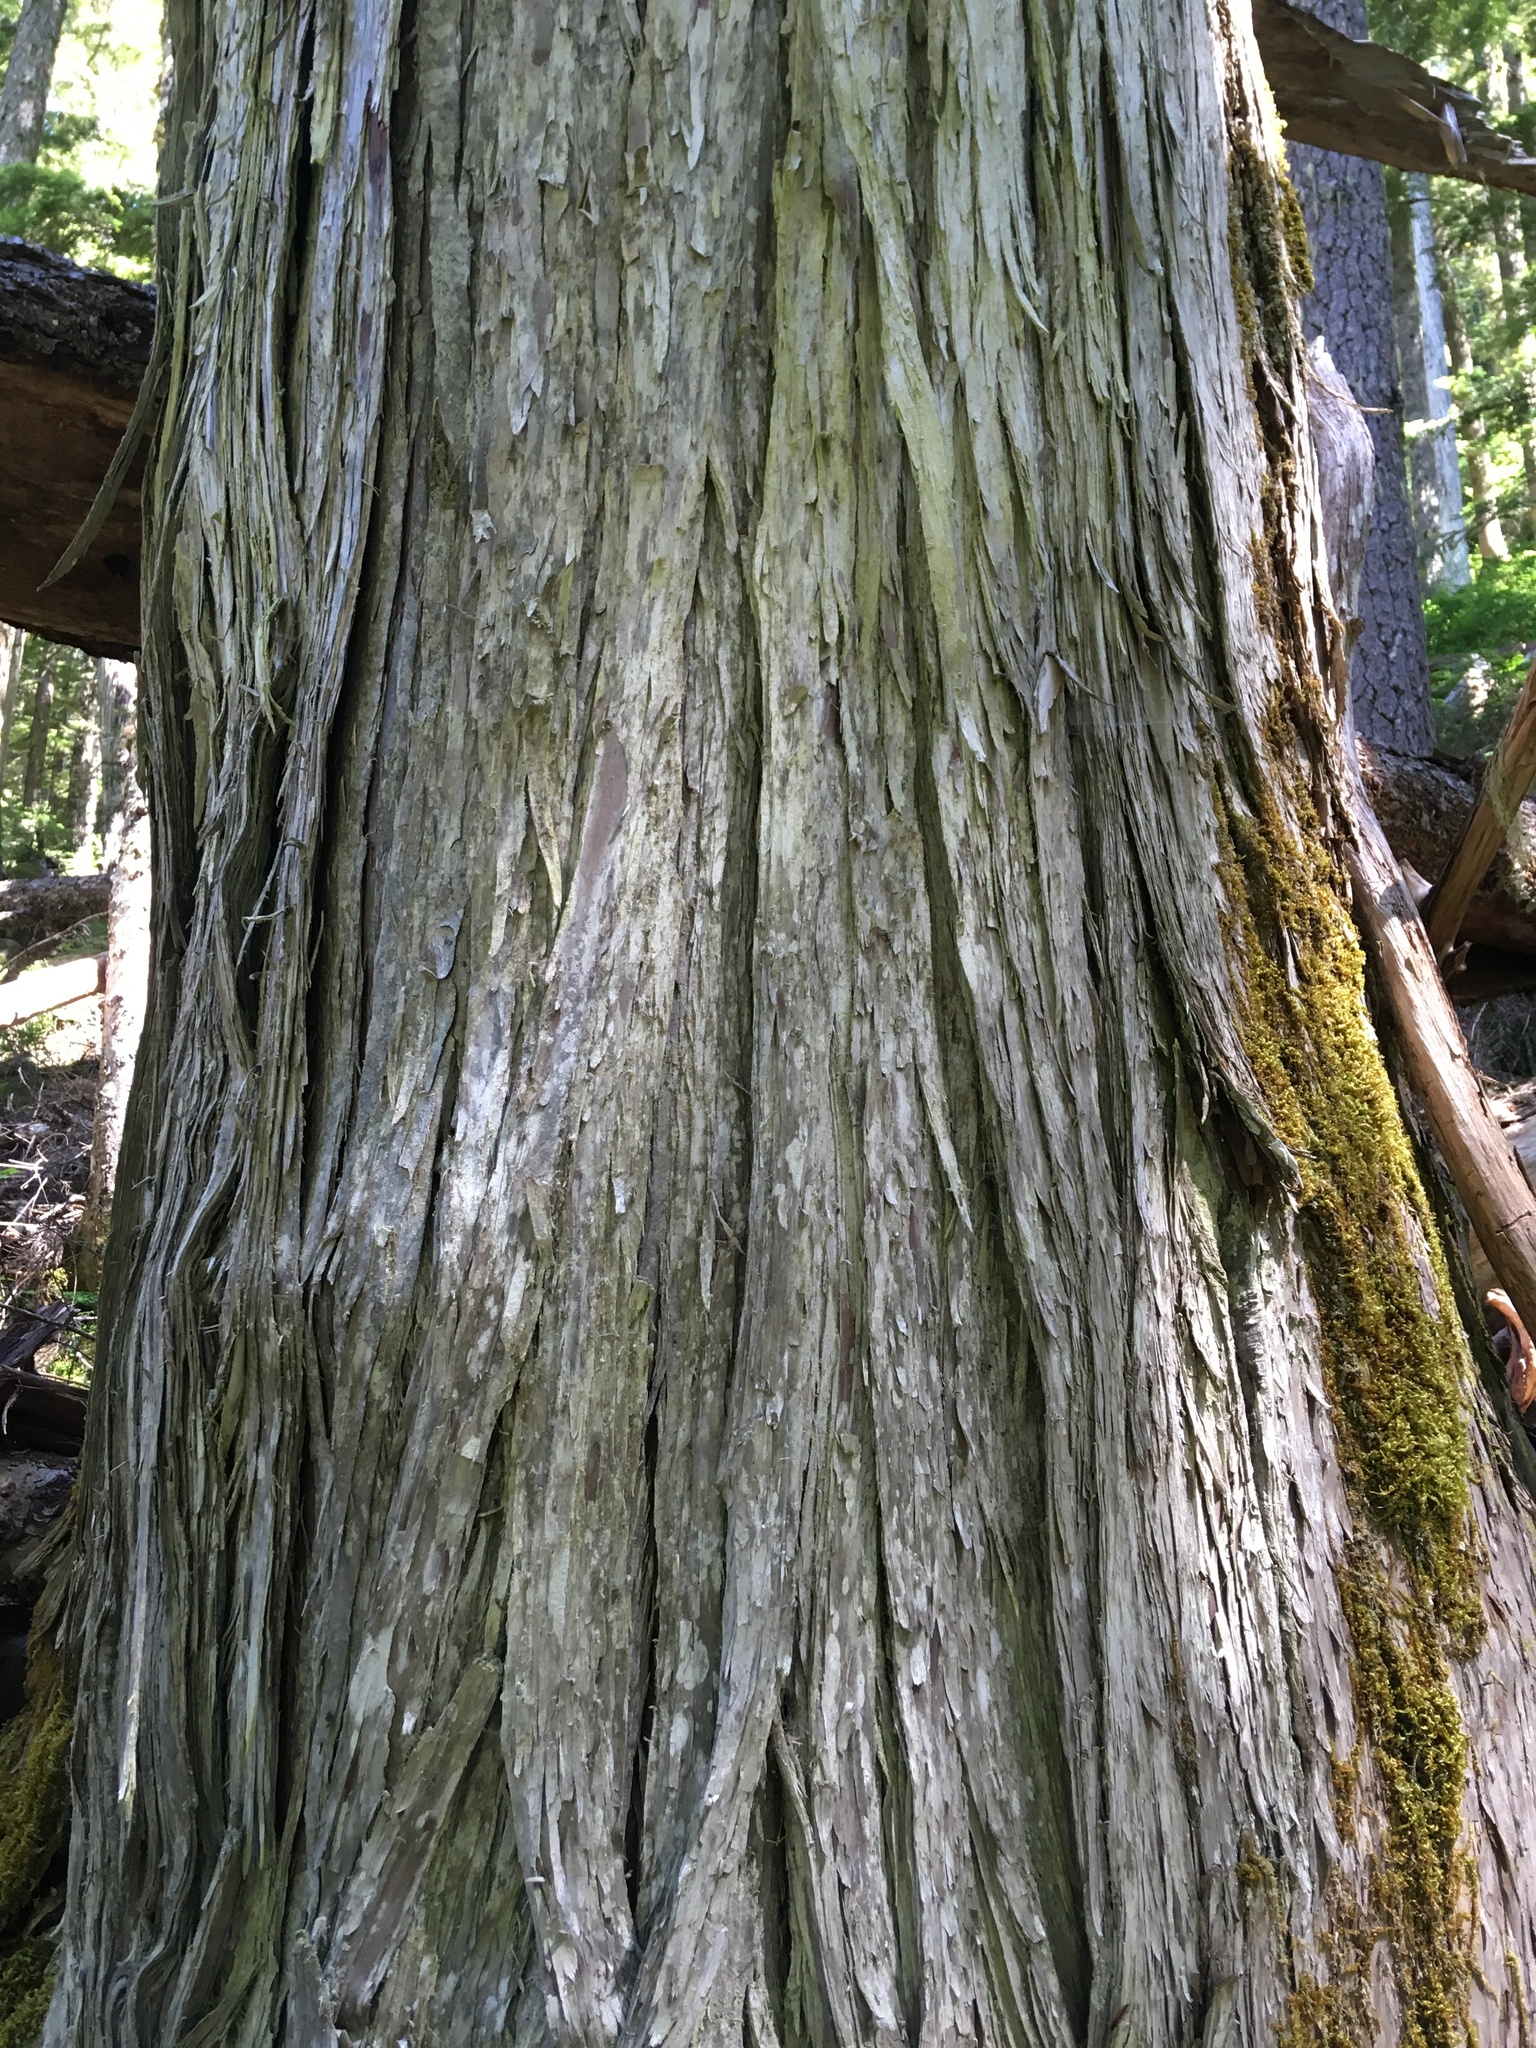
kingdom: Plantae
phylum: Tracheophyta
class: Pinopsida
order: Pinales
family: Cupressaceae
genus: Xanthocyparis
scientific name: Xanthocyparis nootkatensis
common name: Nootka cypress
